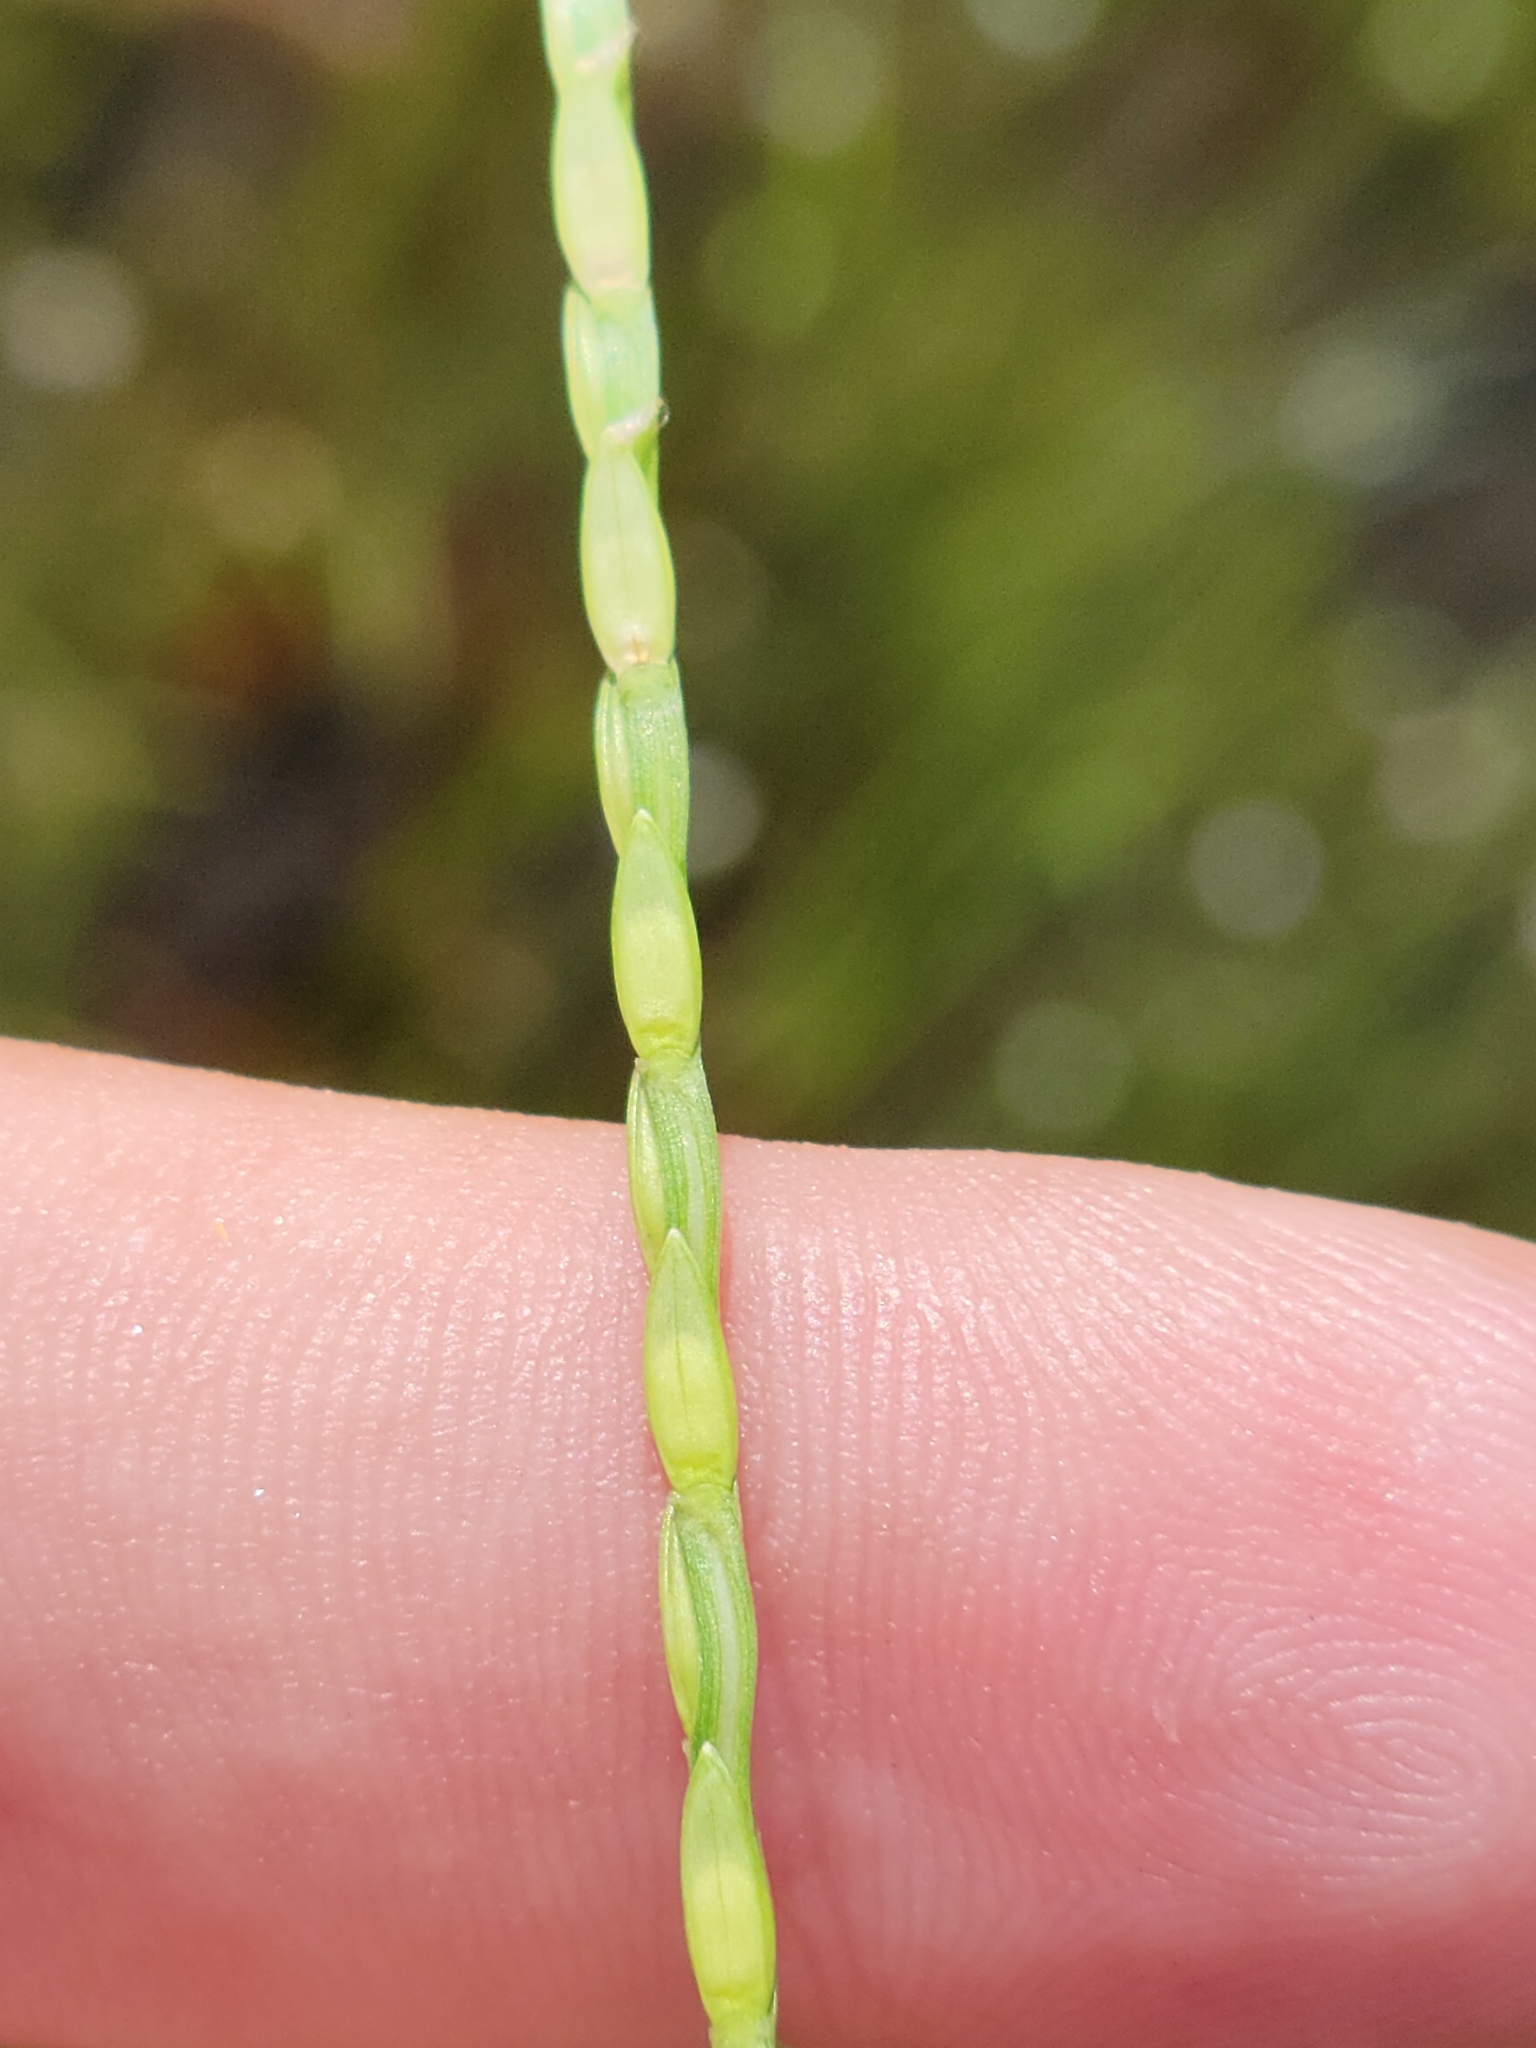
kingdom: Plantae
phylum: Tracheophyta
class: Liliopsida
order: Poales
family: Poaceae
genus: Axonopus
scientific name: Axonopus furcatus
